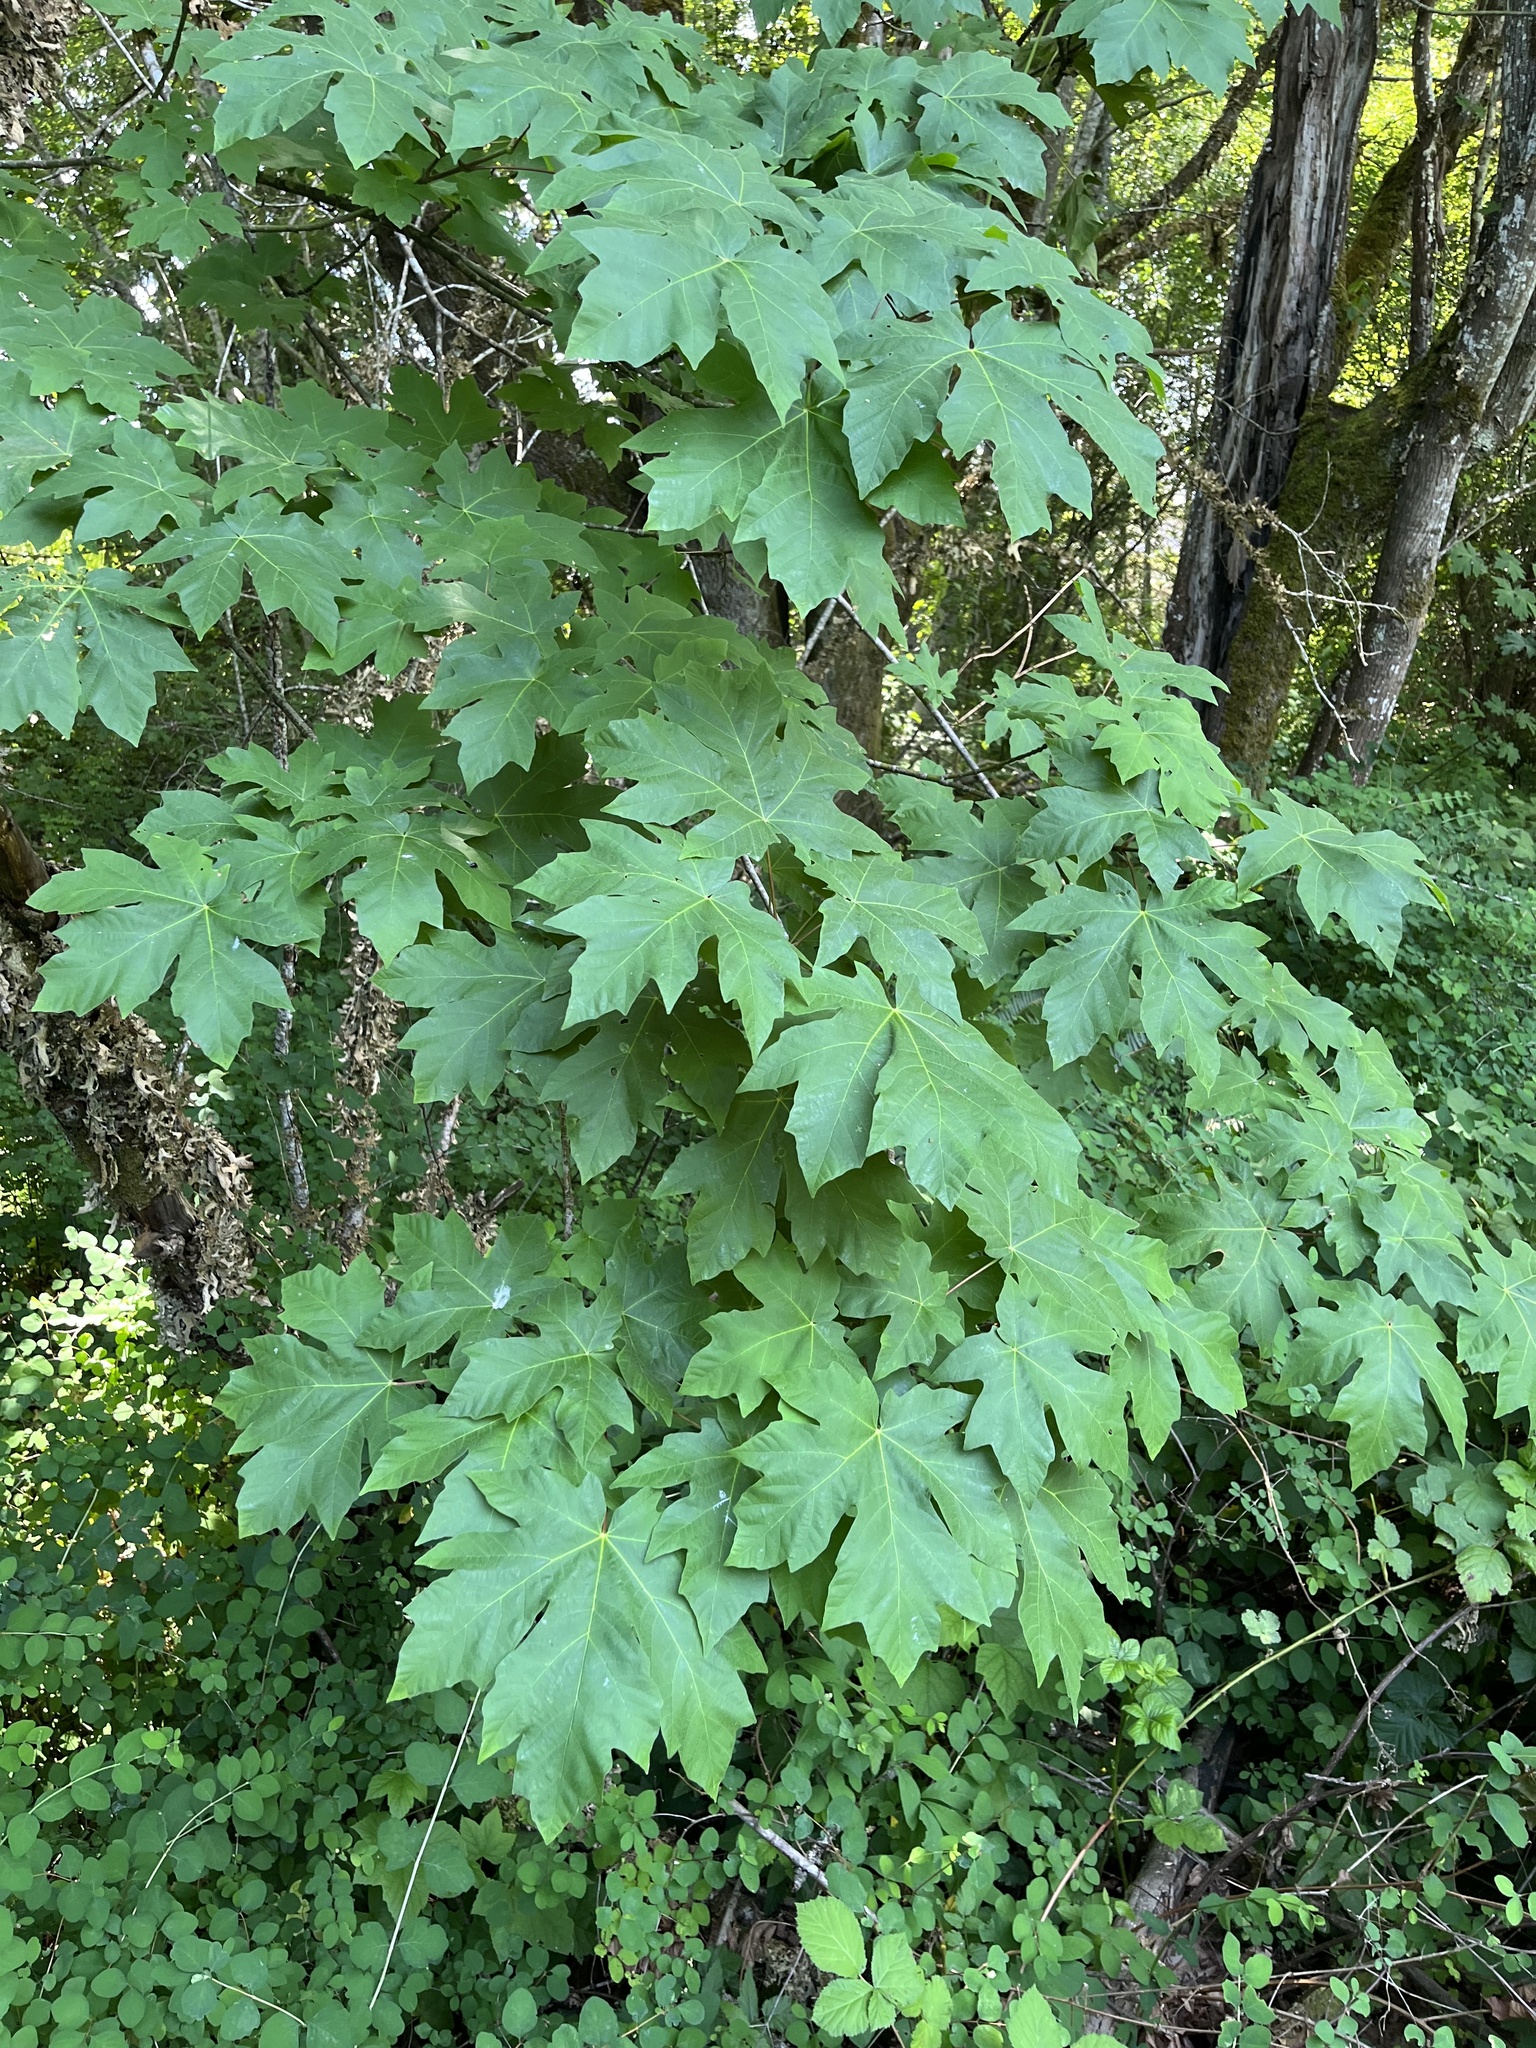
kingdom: Plantae
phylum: Tracheophyta
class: Magnoliopsida
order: Sapindales
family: Sapindaceae
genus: Acer
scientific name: Acer macrophyllum
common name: Oregon maple
